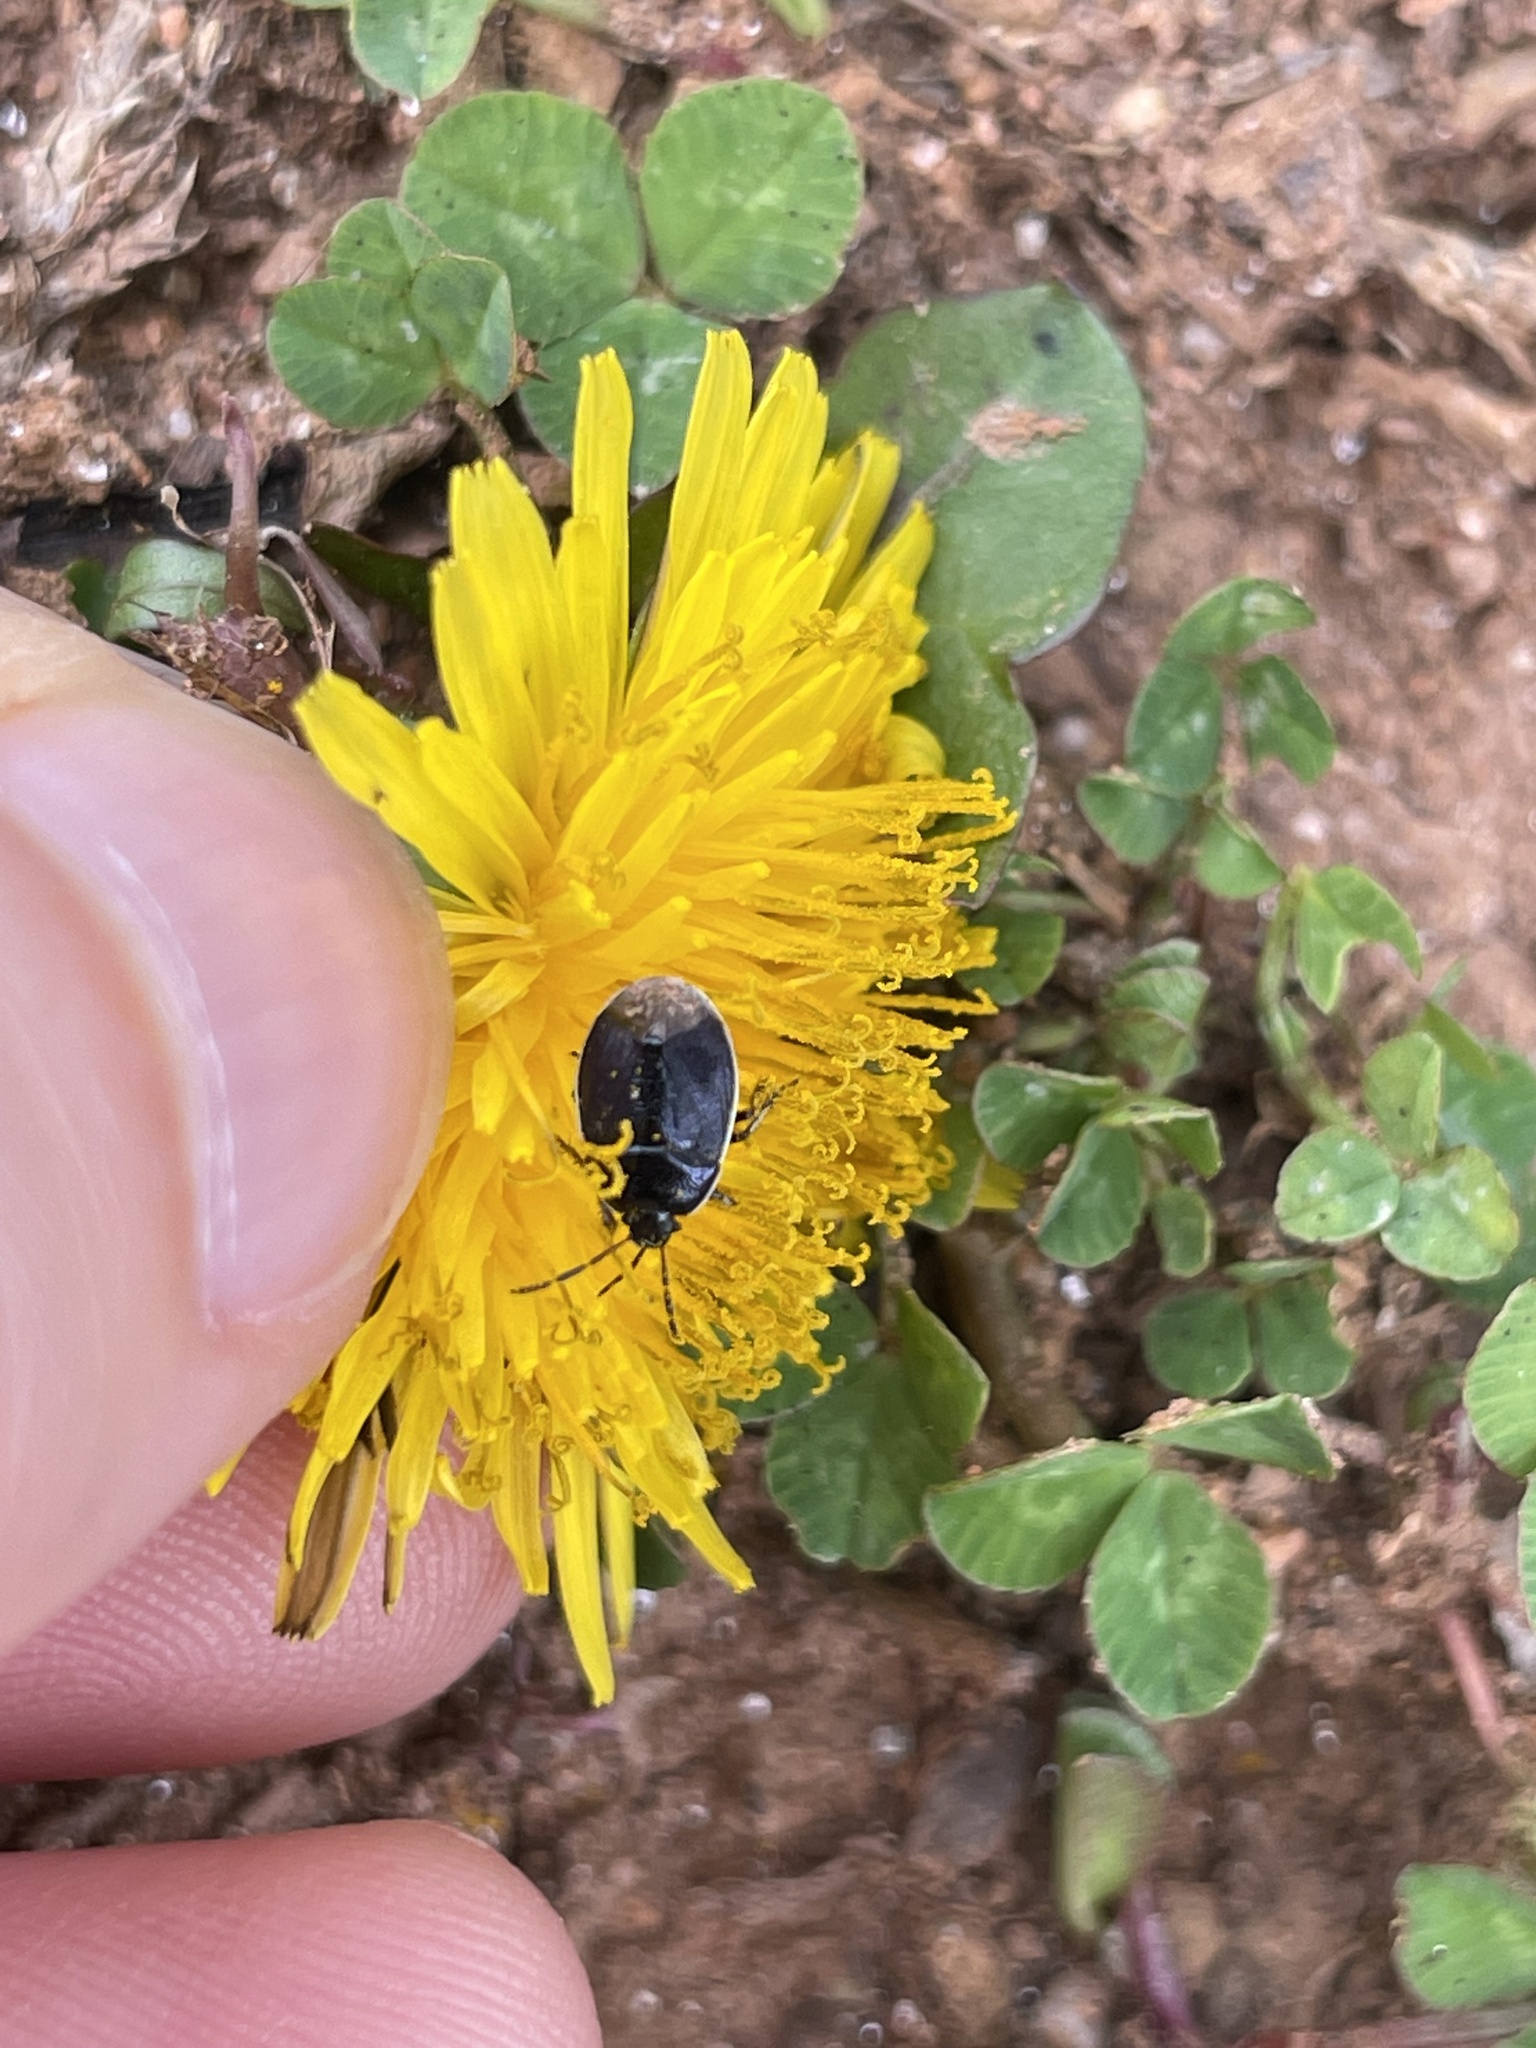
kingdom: Animalia
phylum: Arthropoda
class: Insecta
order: Hemiptera
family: Cydnidae
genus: Sehirus
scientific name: Sehirus cinctus
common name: White-margined burrower bug
